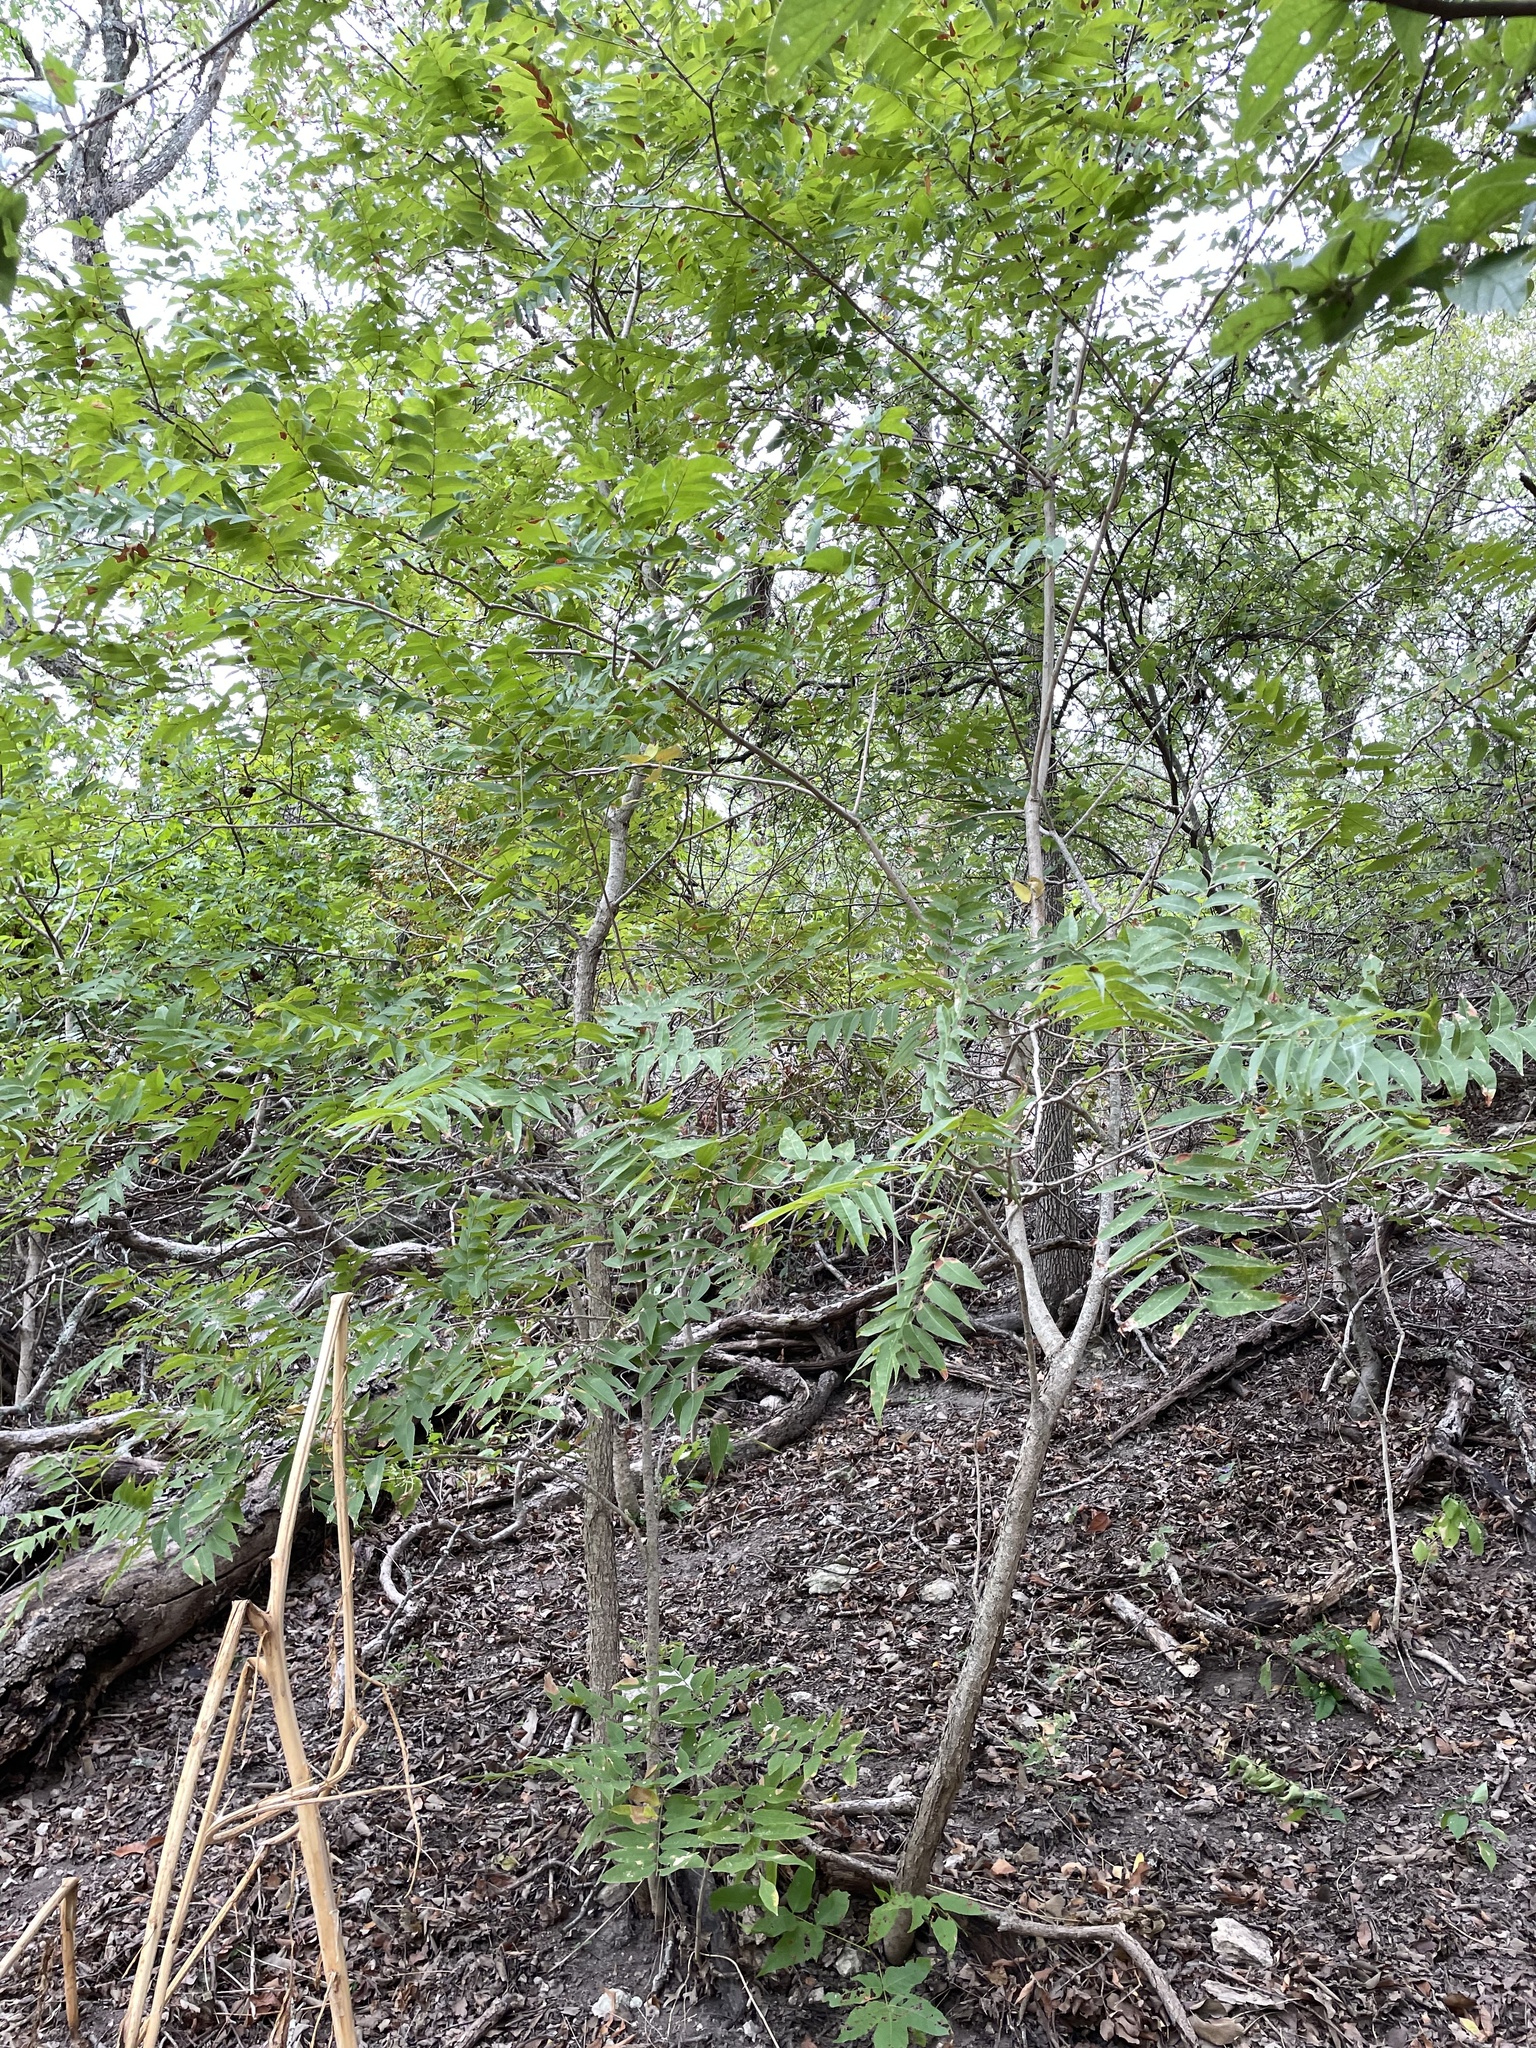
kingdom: Plantae
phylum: Tracheophyta
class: Magnoliopsida
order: Sapindales
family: Sapindaceae
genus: Sapindus
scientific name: Sapindus drummondii
